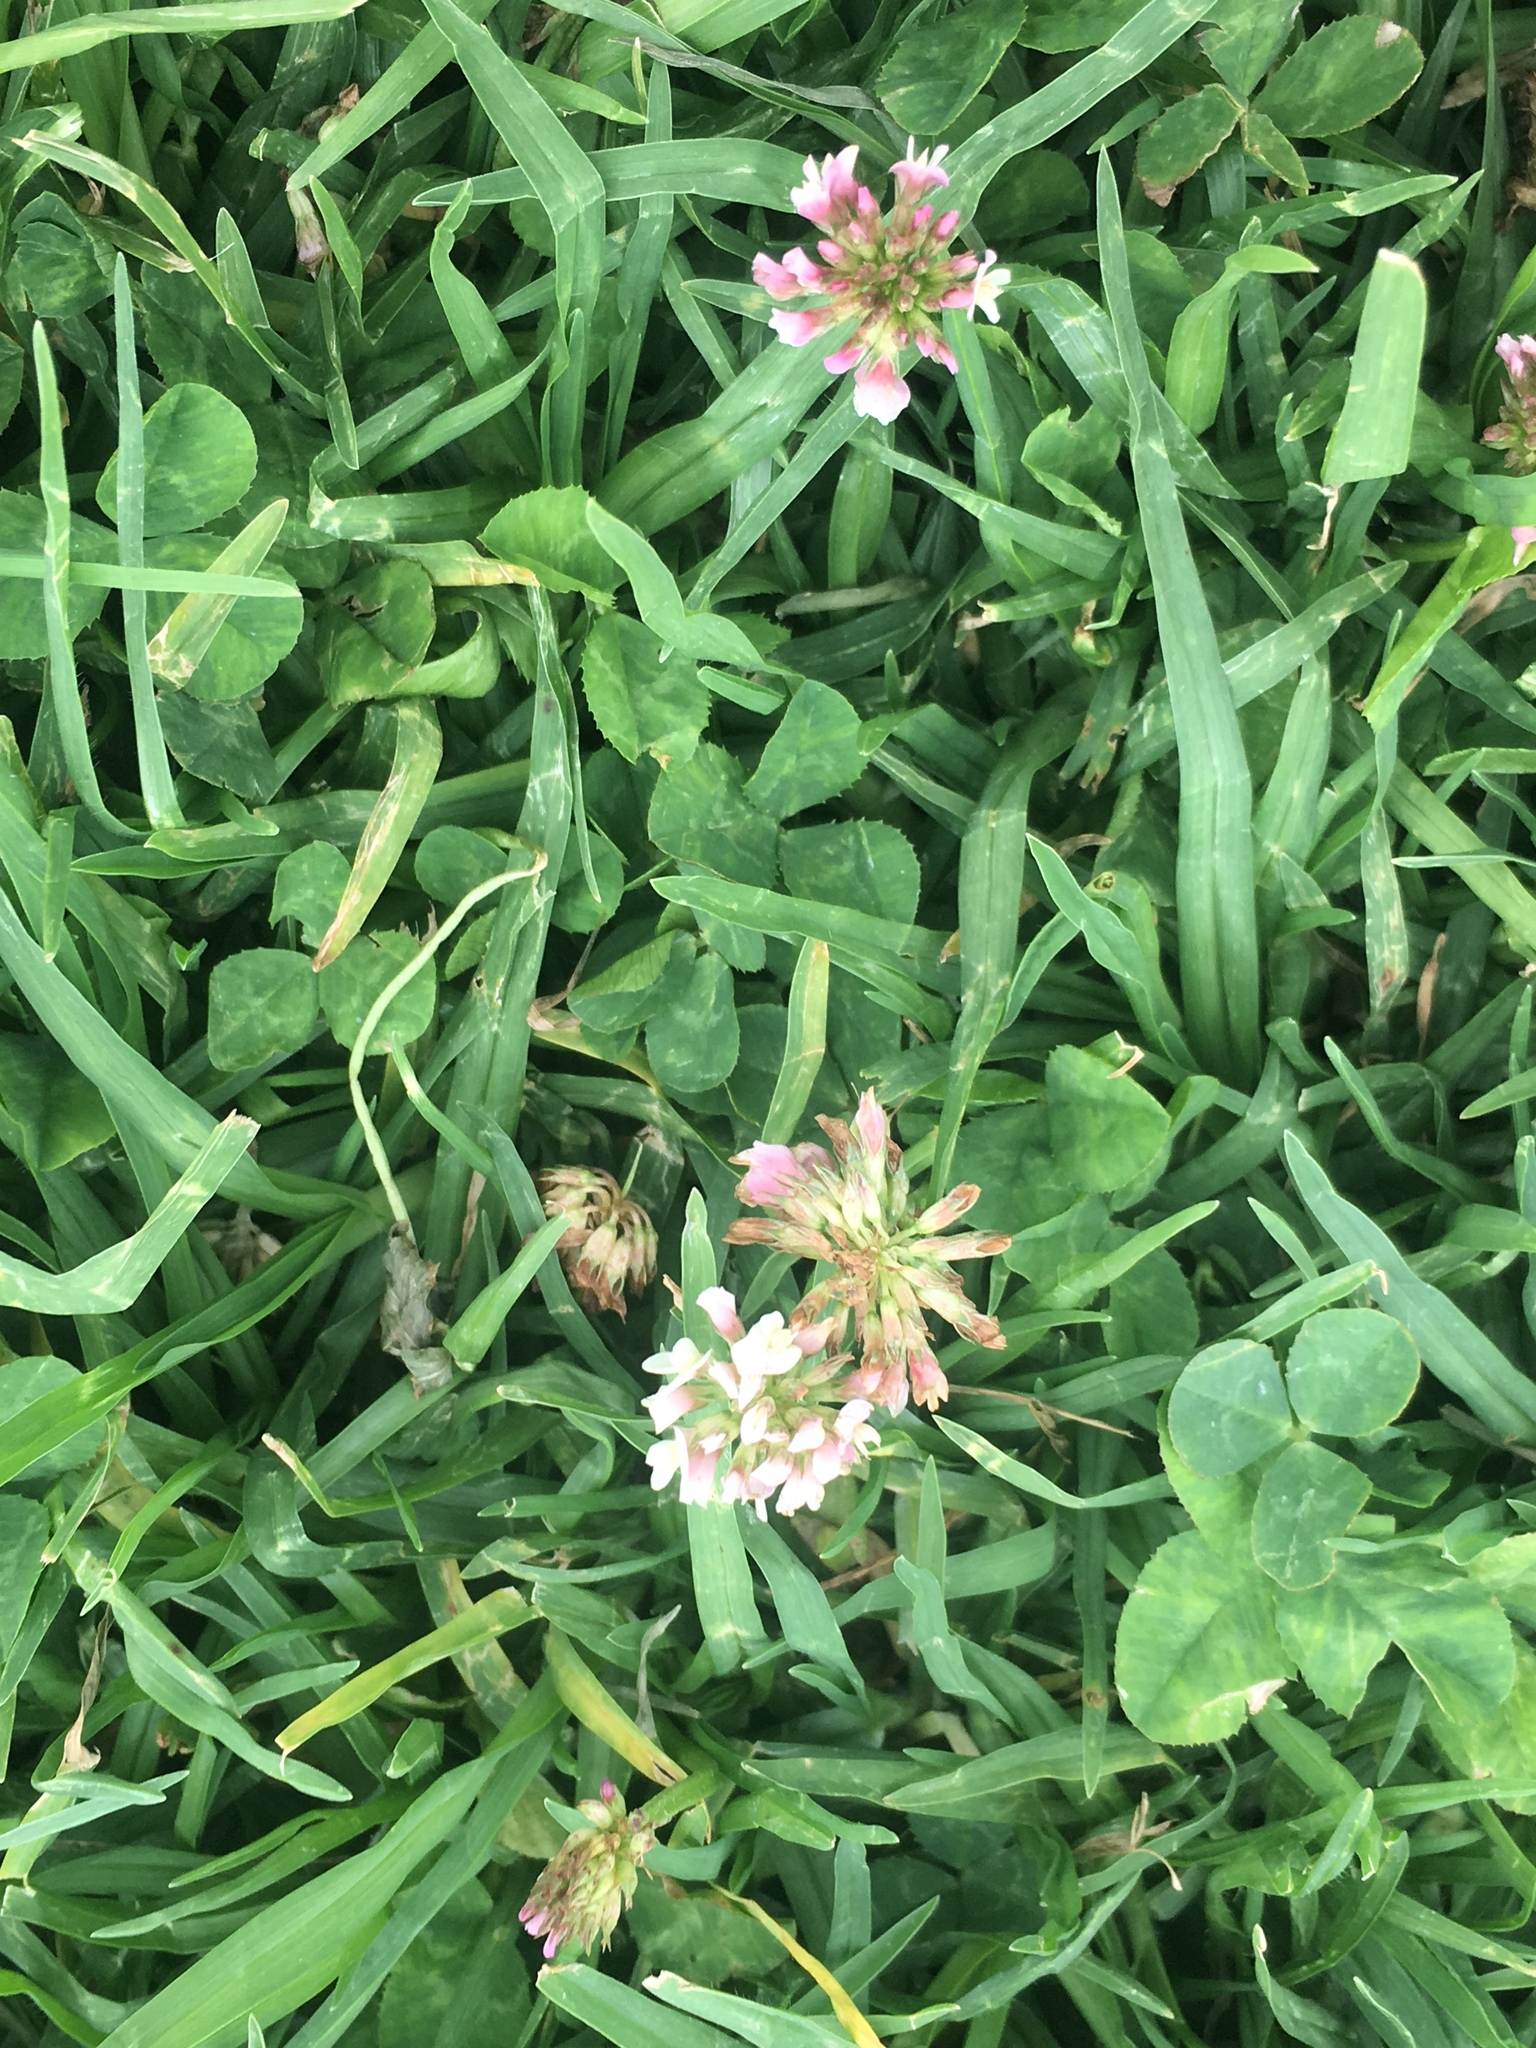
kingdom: Plantae
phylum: Tracheophyta
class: Magnoliopsida
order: Fabales
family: Fabaceae
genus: Trifolium
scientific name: Trifolium repens
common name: White clover
